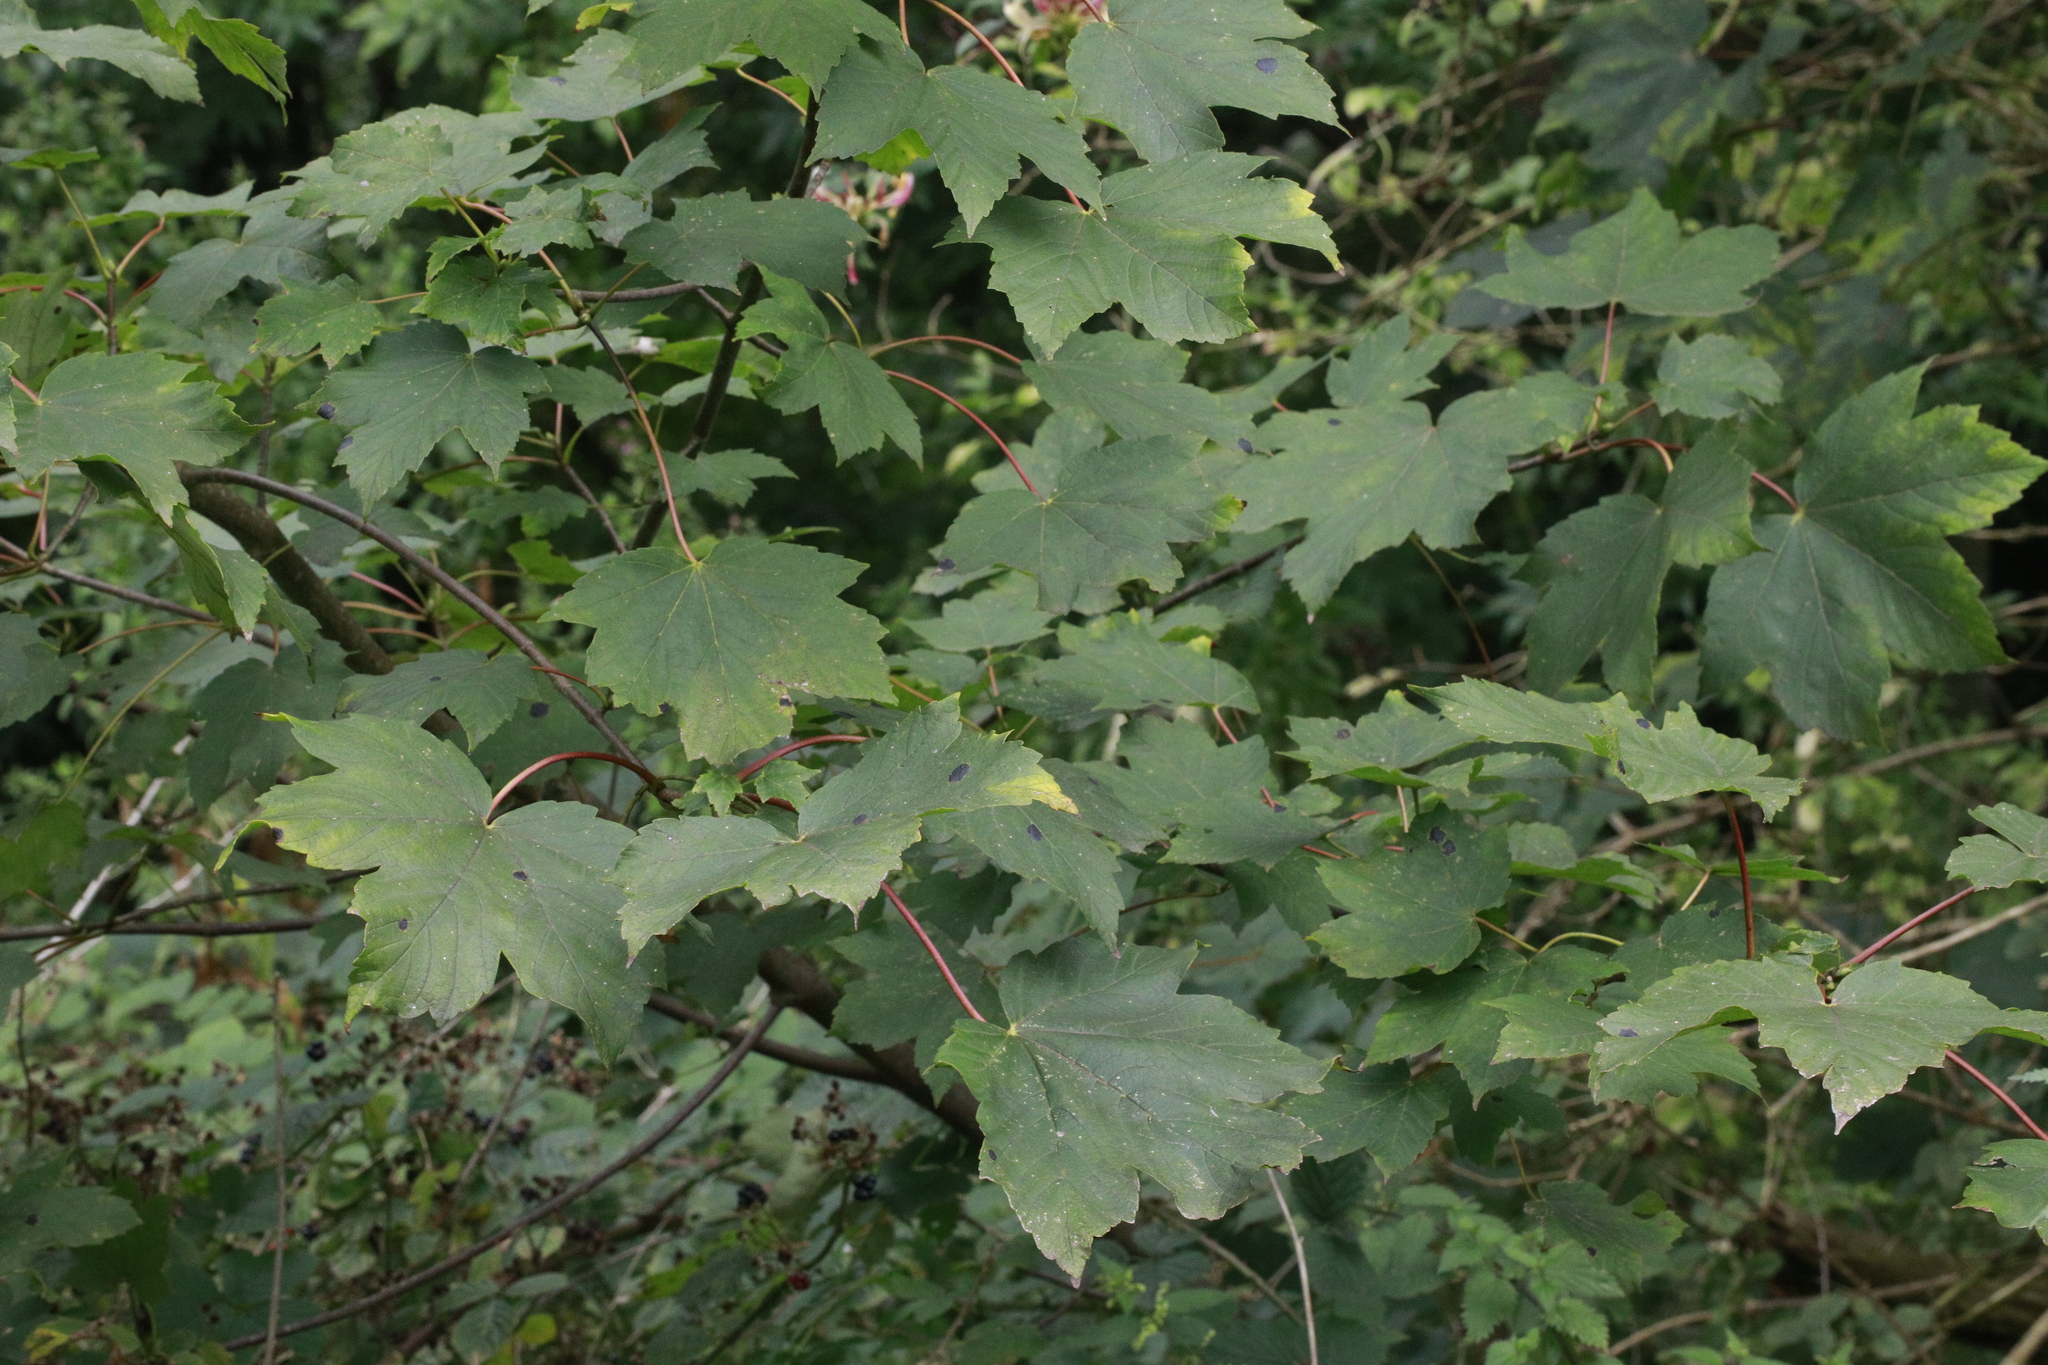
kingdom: Fungi
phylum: Ascomycota
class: Leotiomycetes
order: Rhytismatales
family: Rhytismataceae
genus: Rhytisma
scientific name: Rhytisma acerinum
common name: European tar spot
